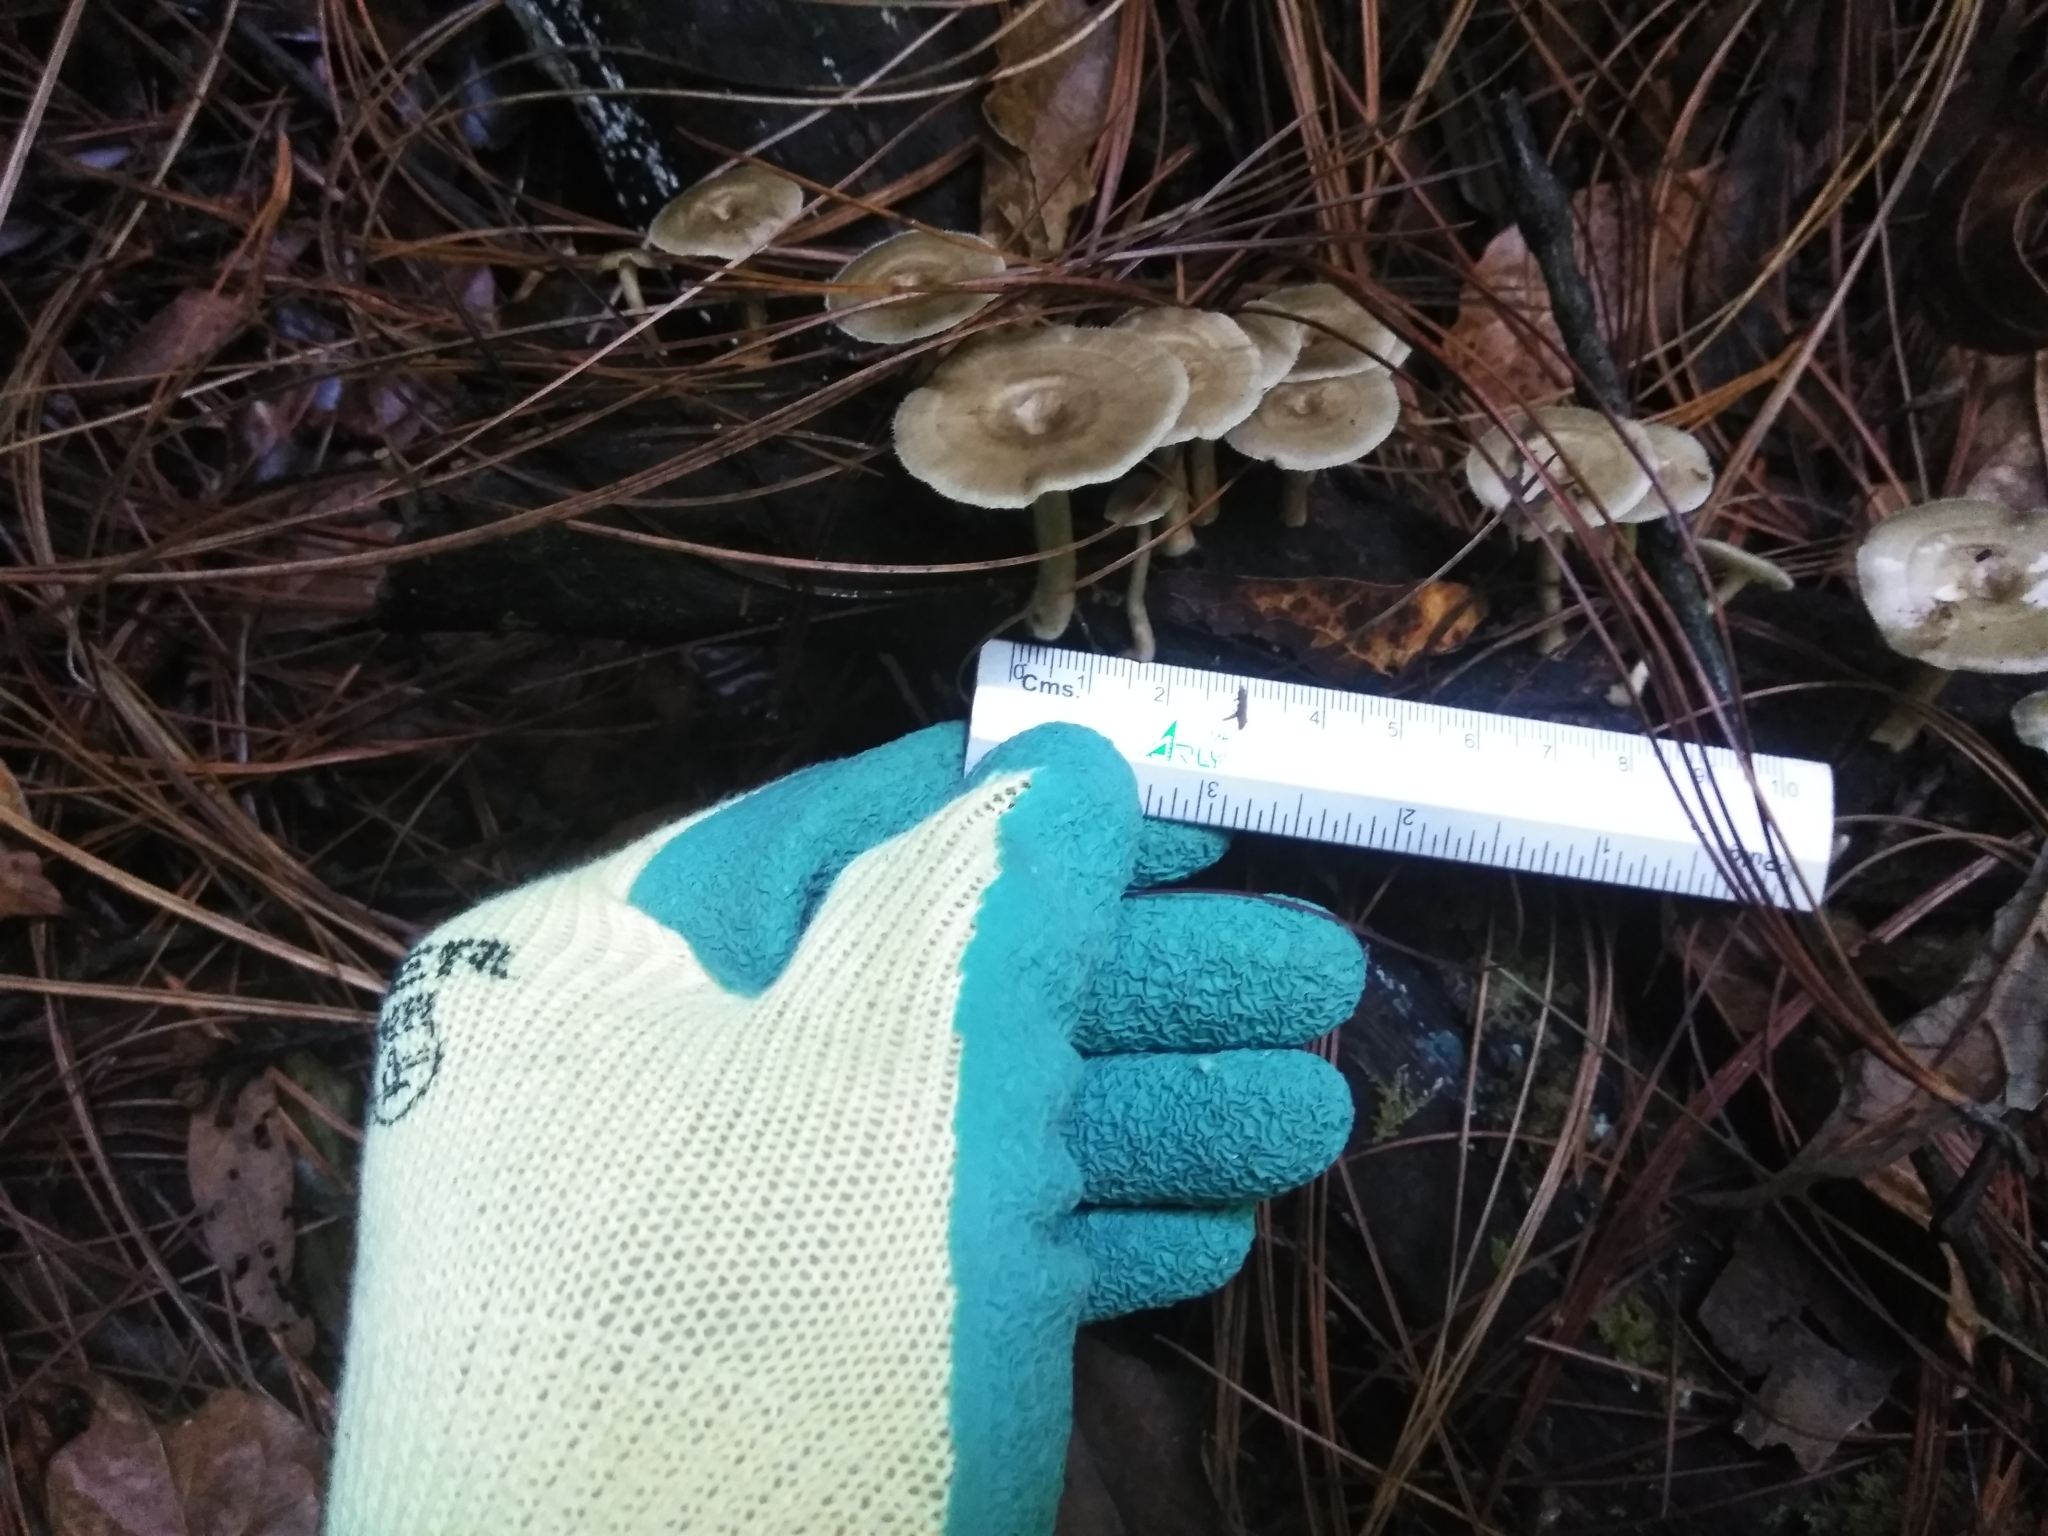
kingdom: Fungi
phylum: Basidiomycota
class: Agaricomycetes
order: Polyporales
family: Polyporaceae
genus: Lentinus
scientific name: Lentinus arcularius
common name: Spring polypore
